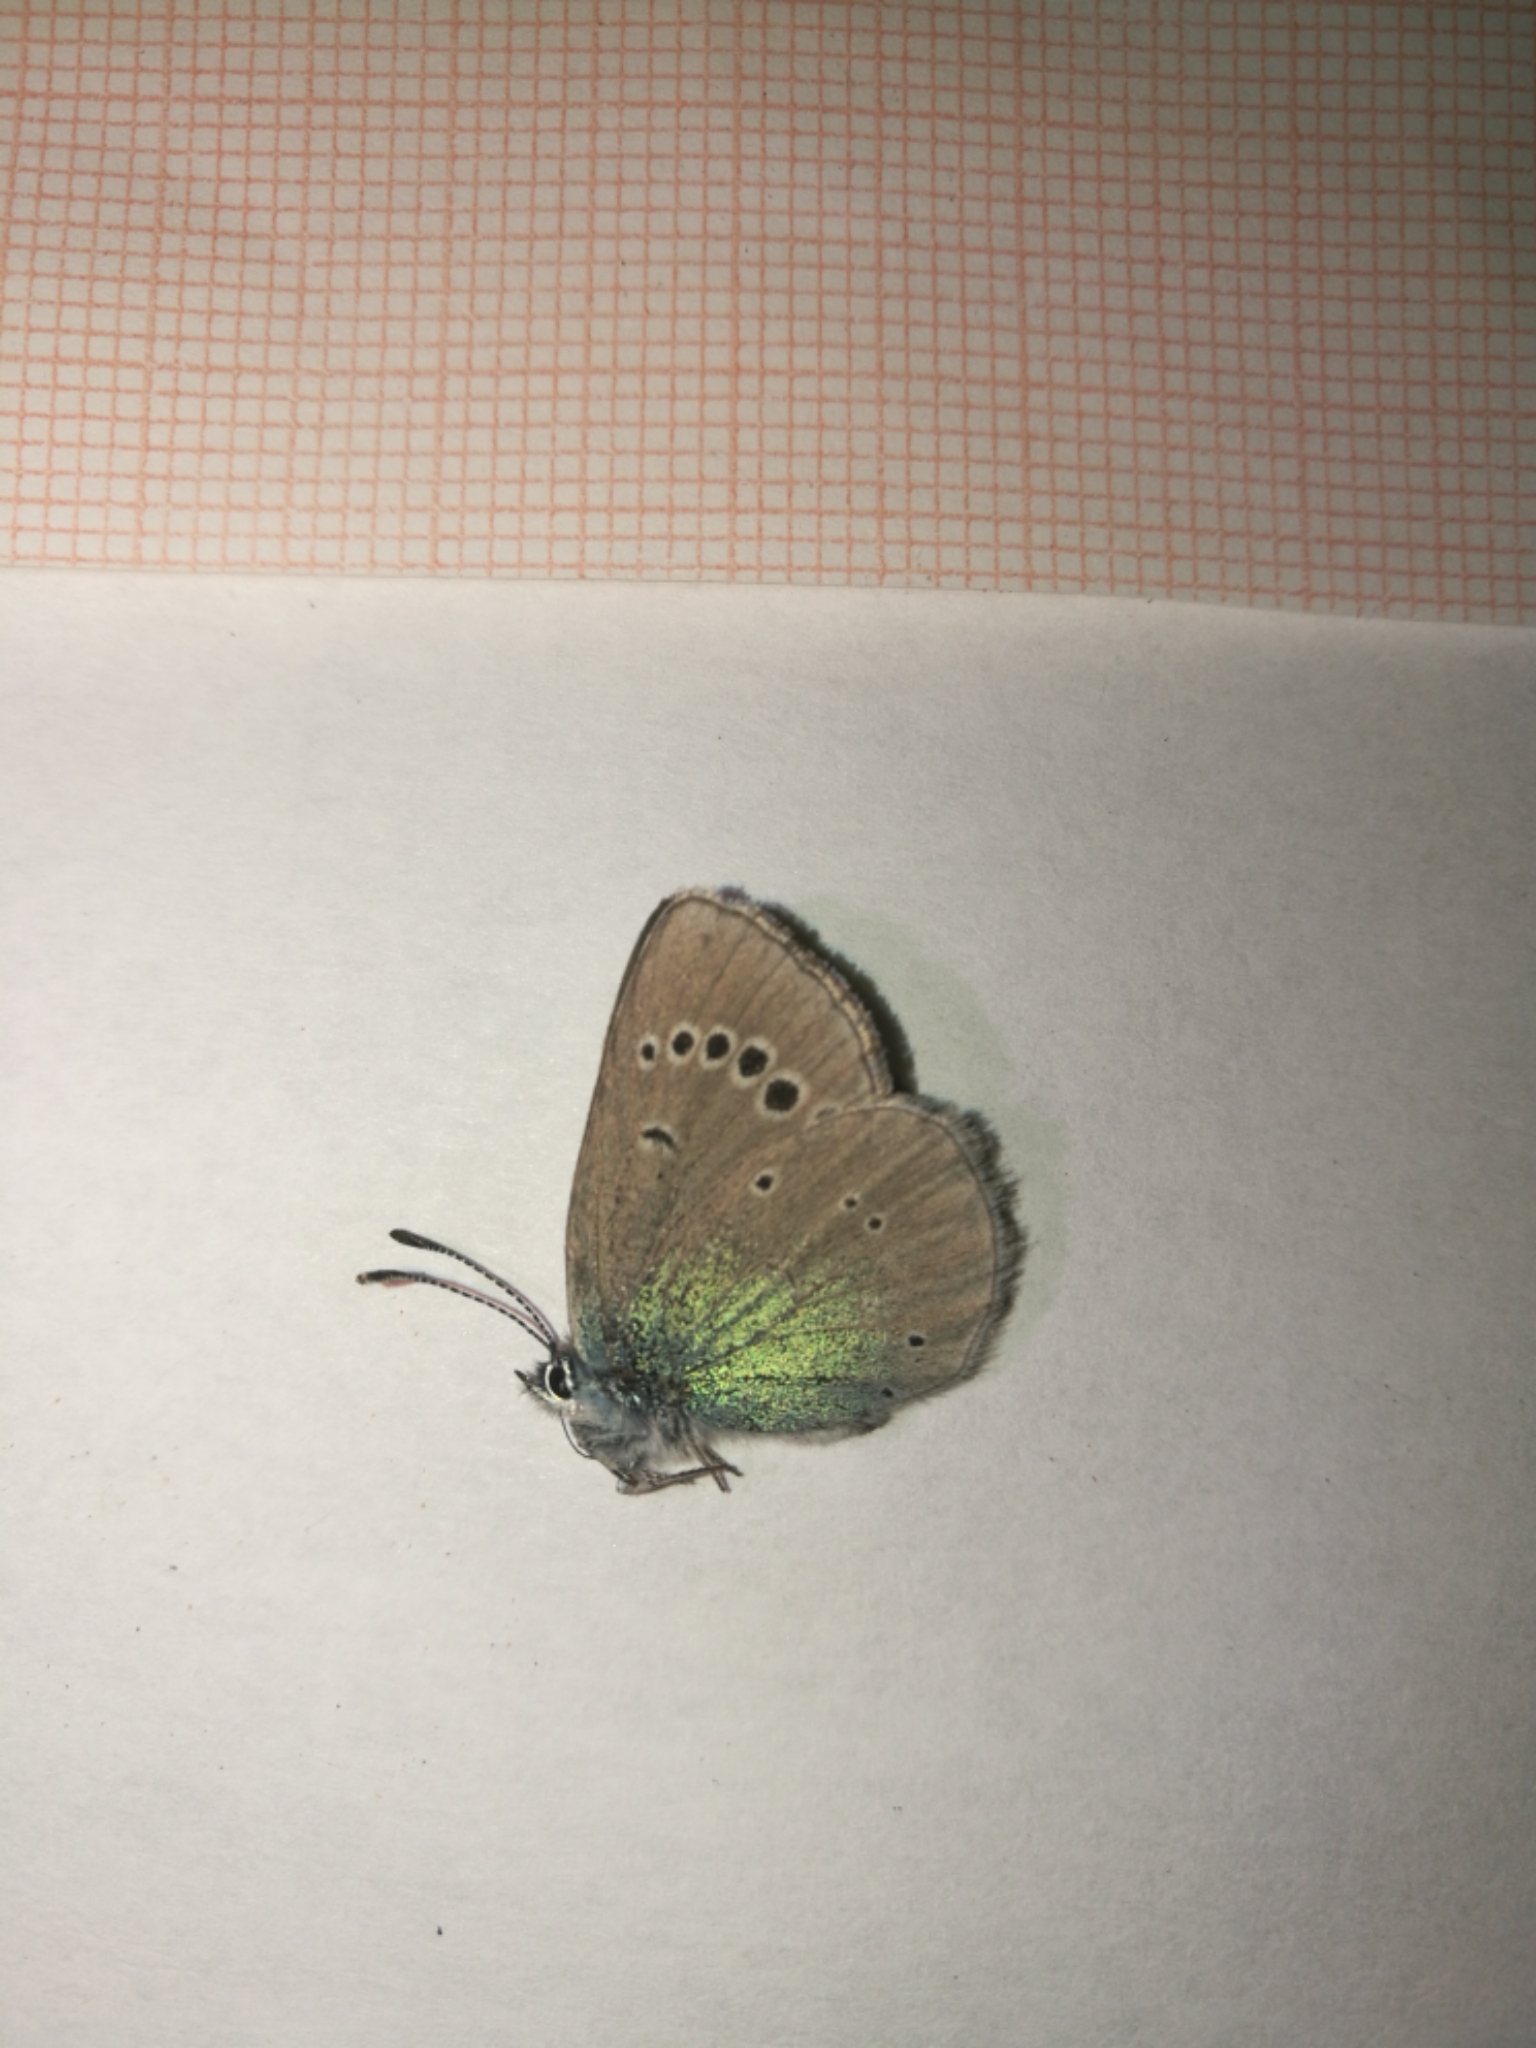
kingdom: Animalia
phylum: Arthropoda
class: Insecta
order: Lepidoptera
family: Lycaenidae
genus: Glaucopsyche
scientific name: Glaucopsyche alexis
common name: Green-underside blue
